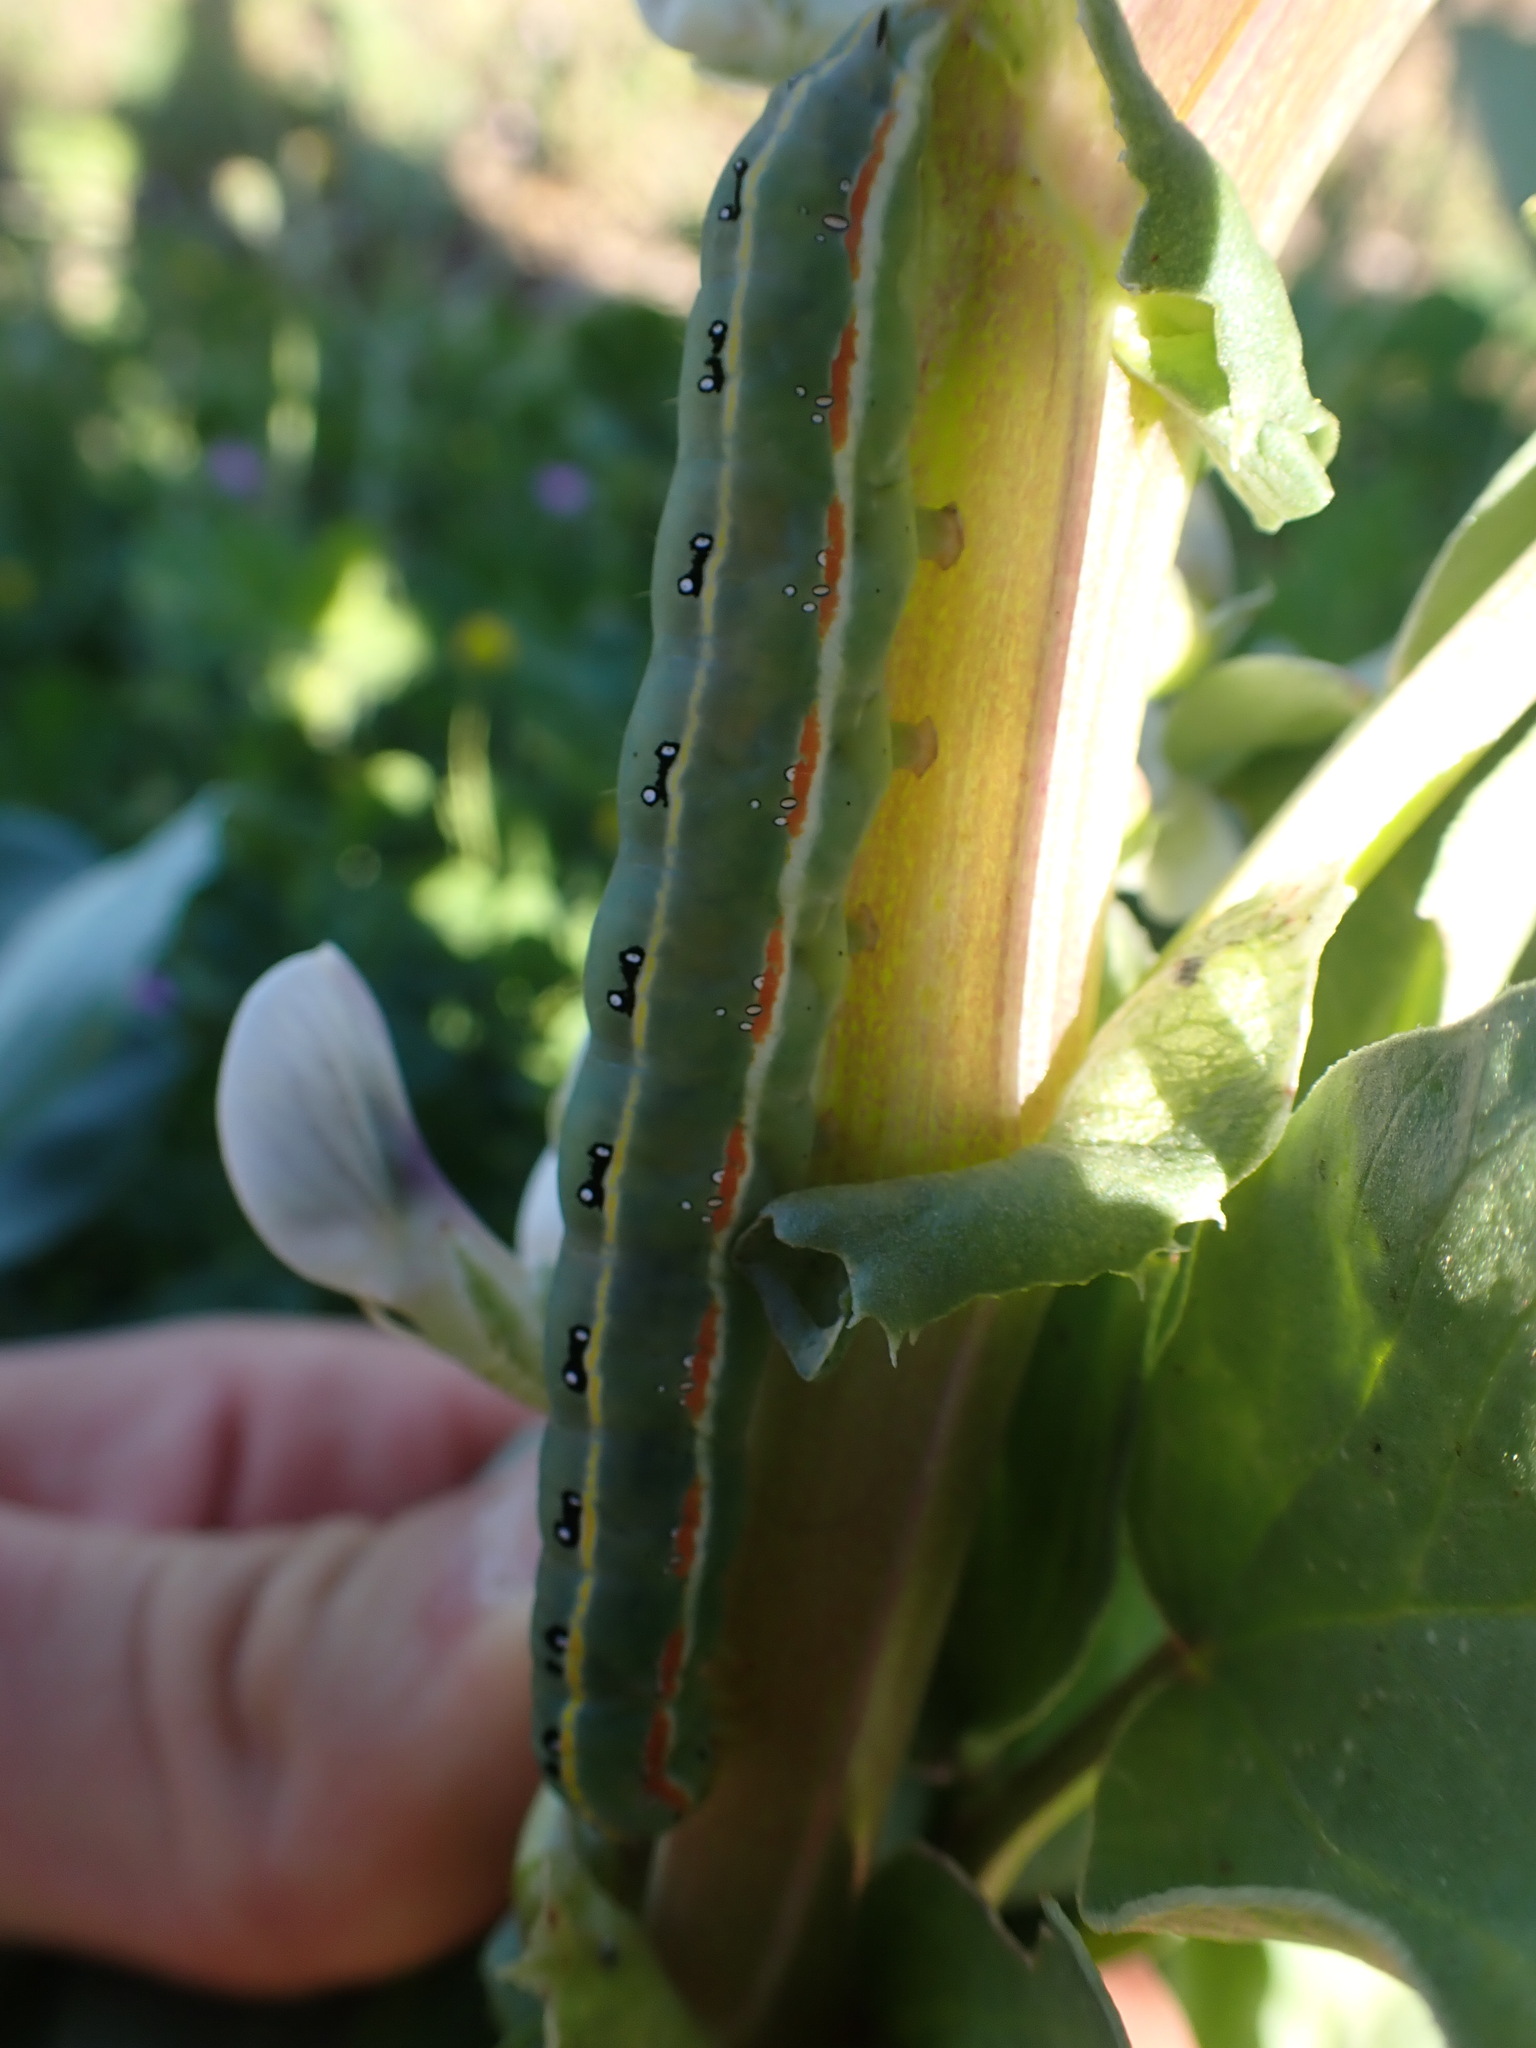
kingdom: Animalia
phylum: Arthropoda
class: Insecta
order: Lepidoptera
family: Noctuidae
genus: Xylena
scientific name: Xylena exsoleta
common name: Sword-grass
